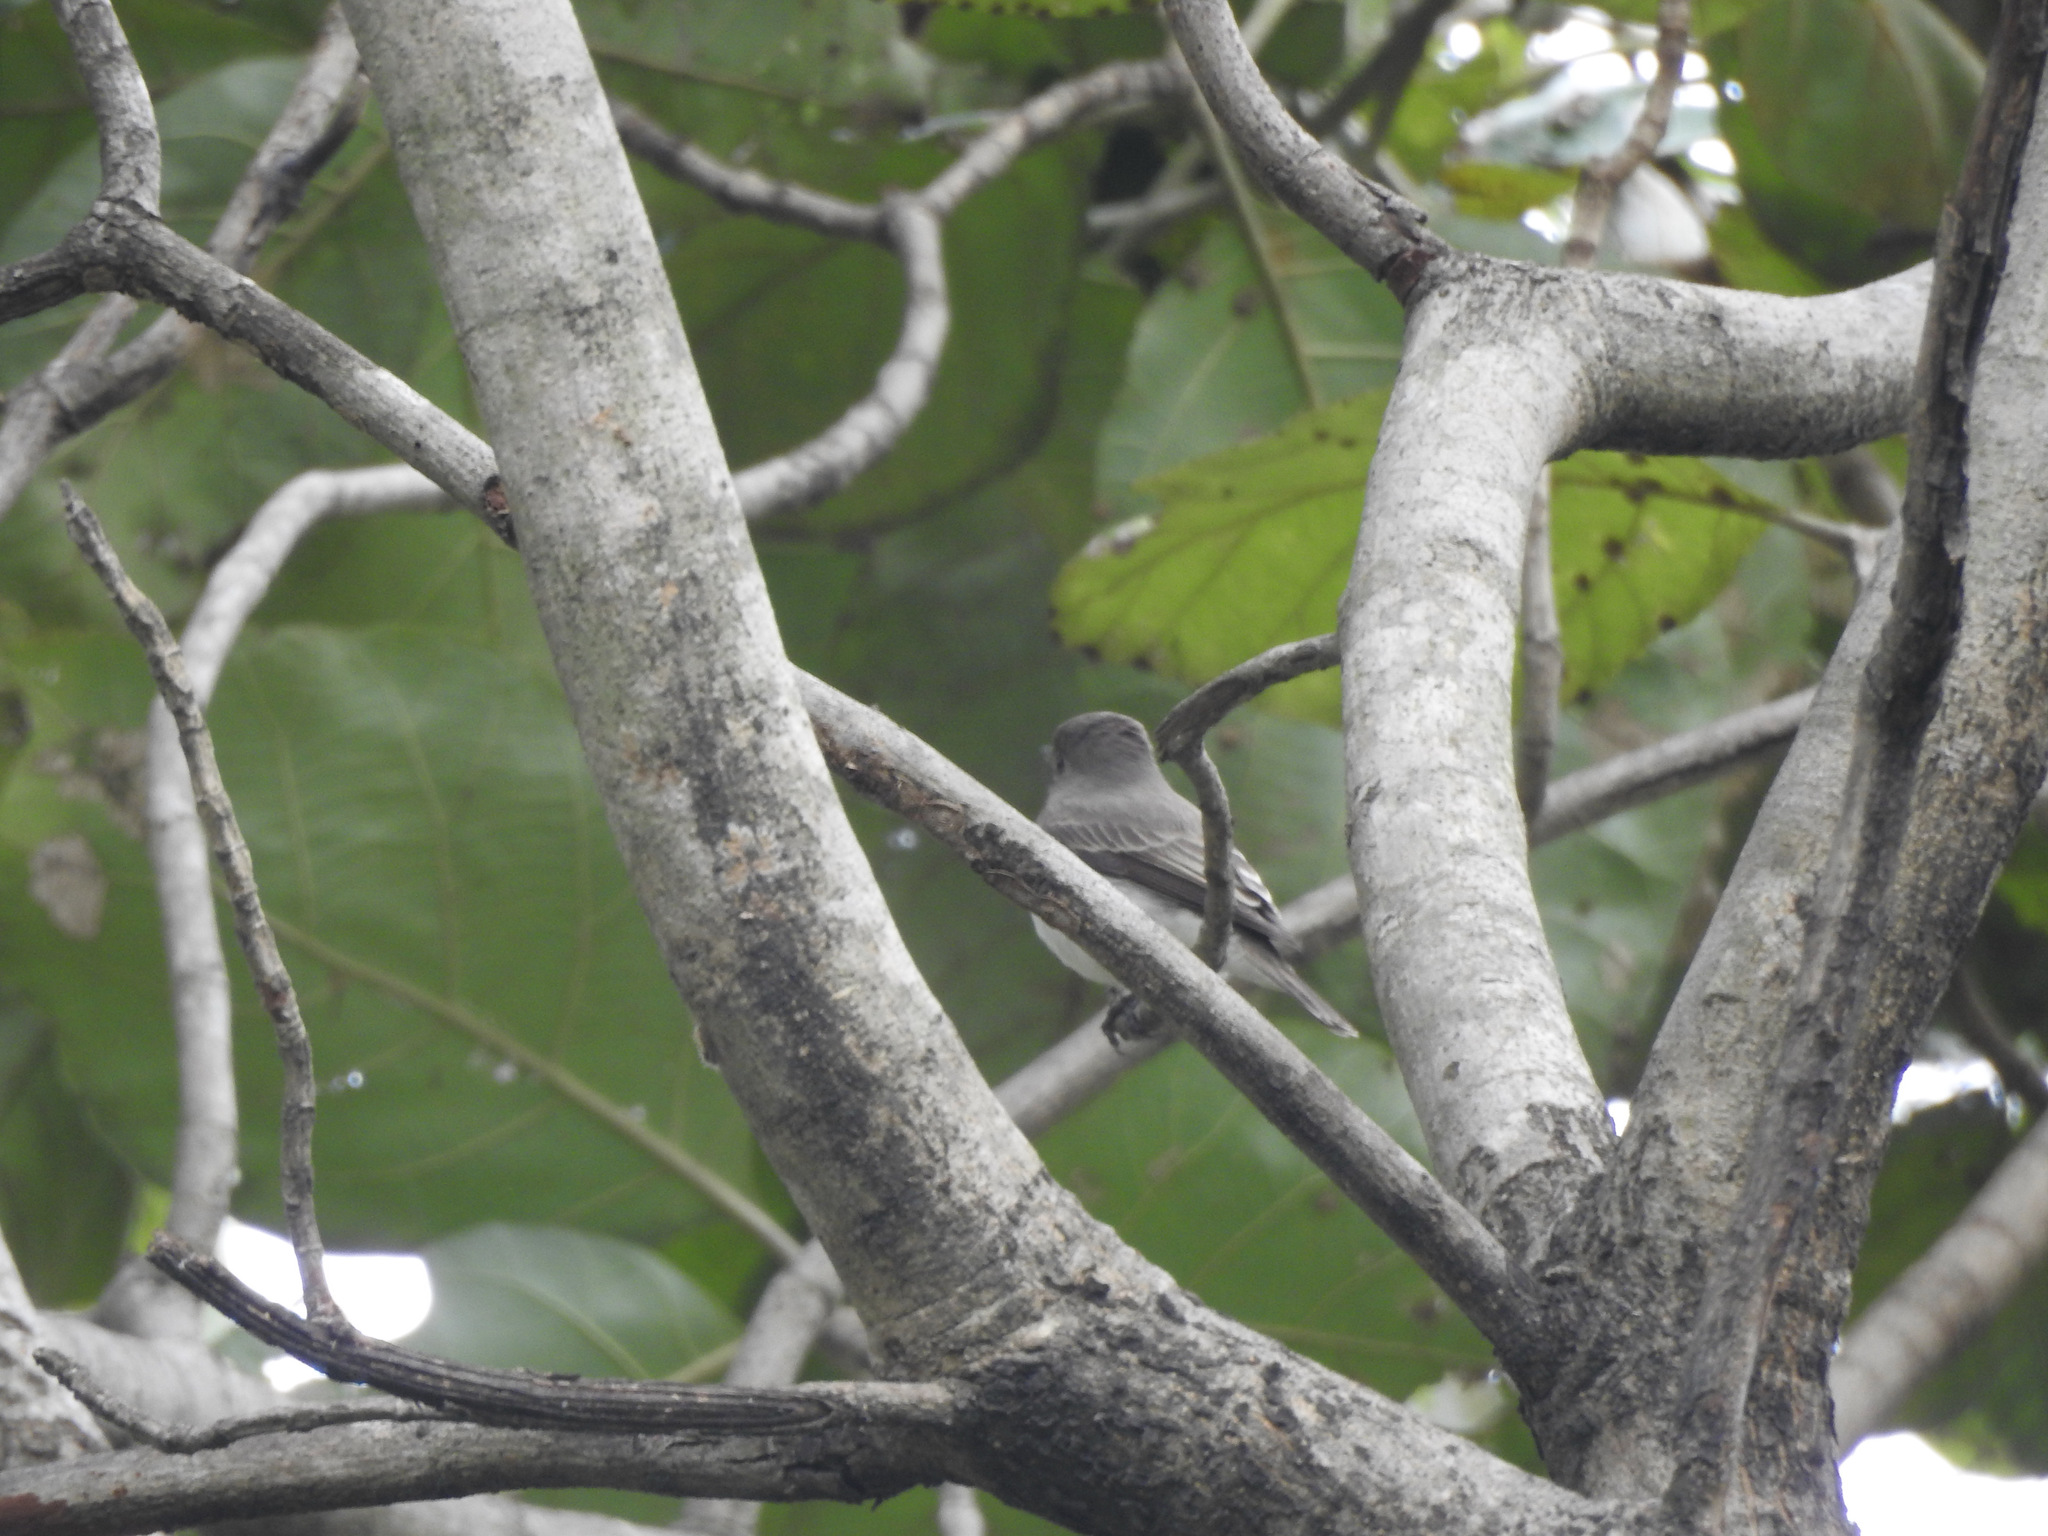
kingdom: Animalia
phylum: Chordata
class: Aves
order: Passeriformes
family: Muscicapidae
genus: Muscicapa
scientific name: Muscicapa latirostris
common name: Asian brown flycatcher
